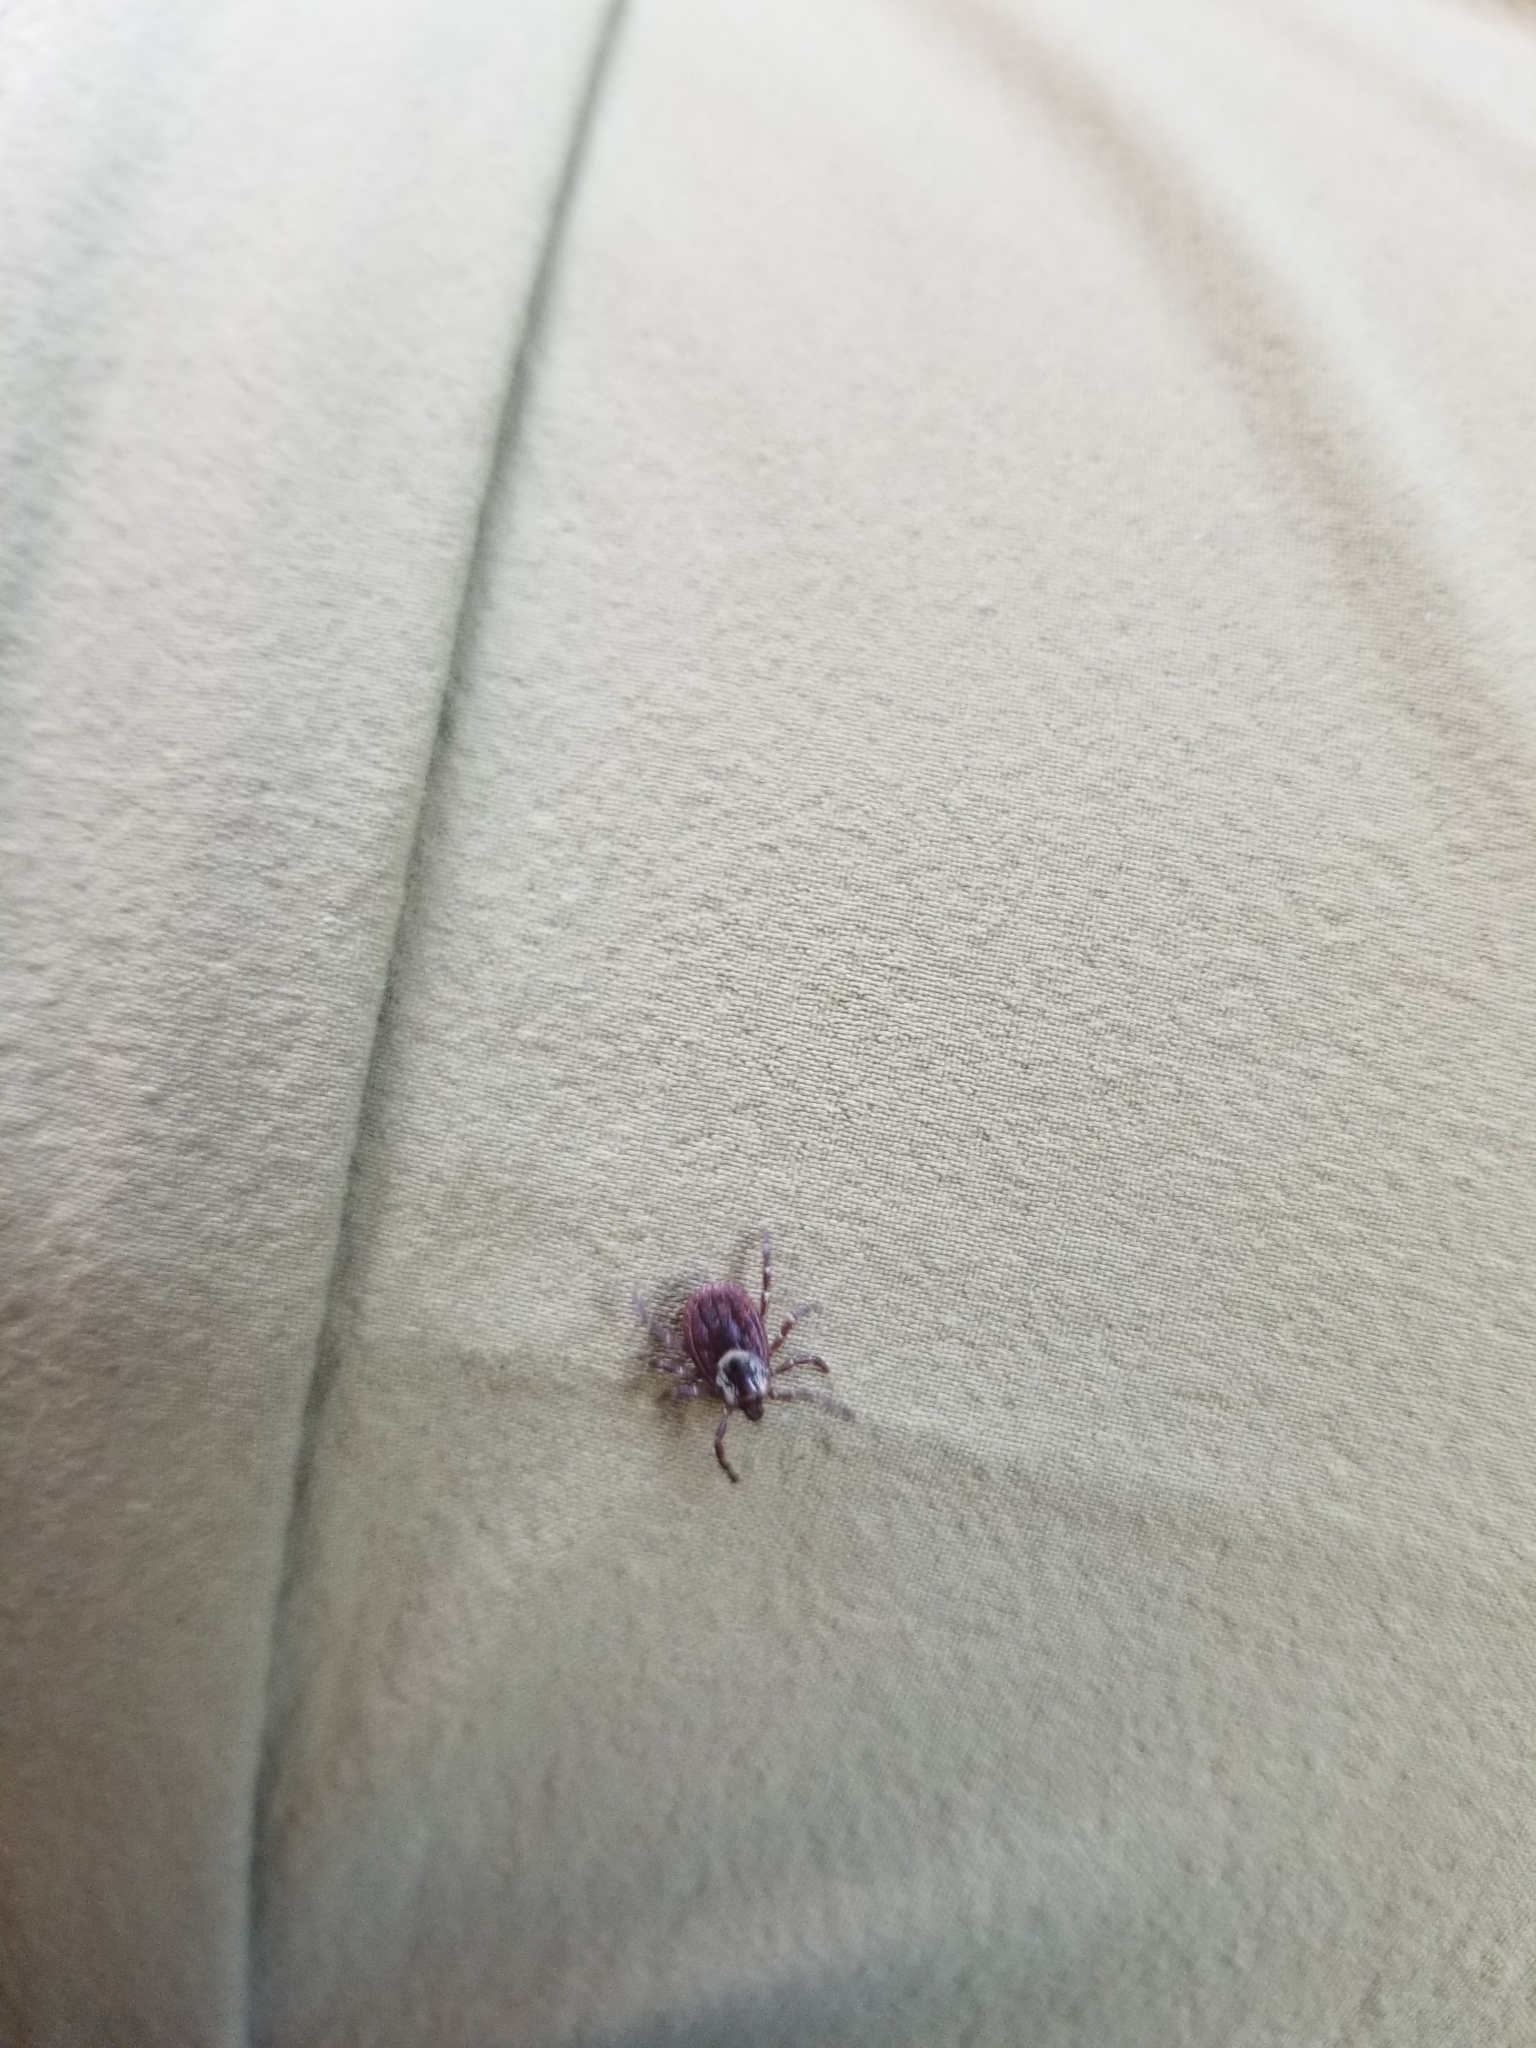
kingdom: Animalia
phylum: Arthropoda
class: Arachnida
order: Ixodida
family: Ixodidae
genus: Dermacentor
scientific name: Dermacentor variabilis
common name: American dog tick
